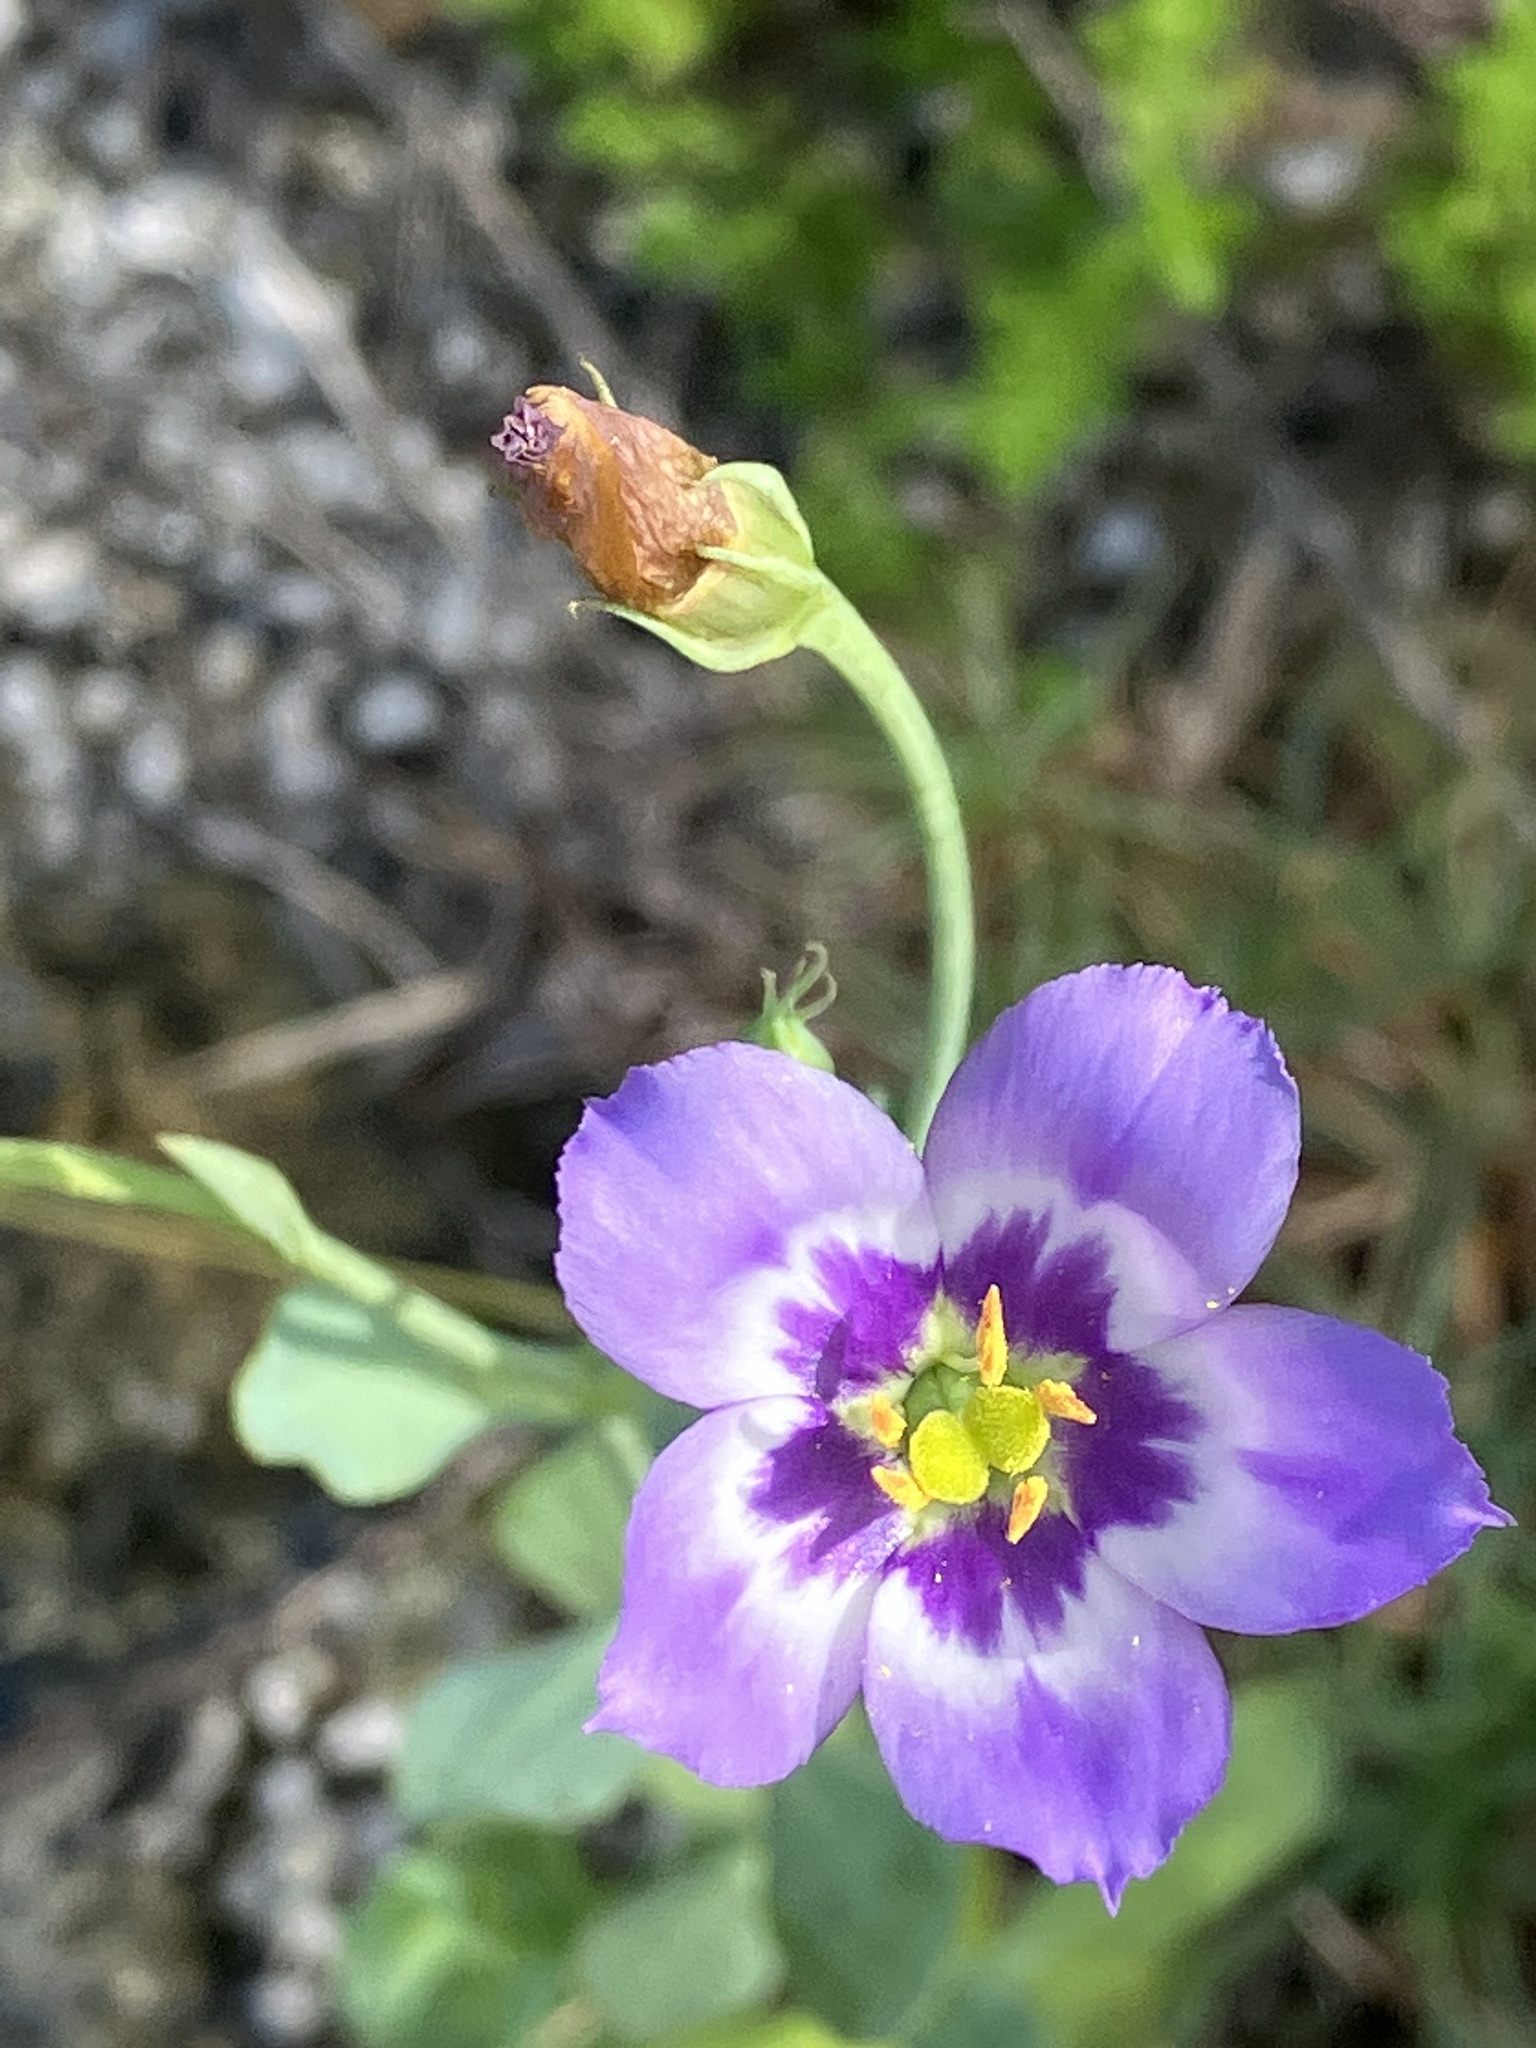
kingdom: Plantae
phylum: Tracheophyta
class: Magnoliopsida
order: Gentianales
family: Gentianaceae
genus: Eustoma
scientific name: Eustoma exaltatum
